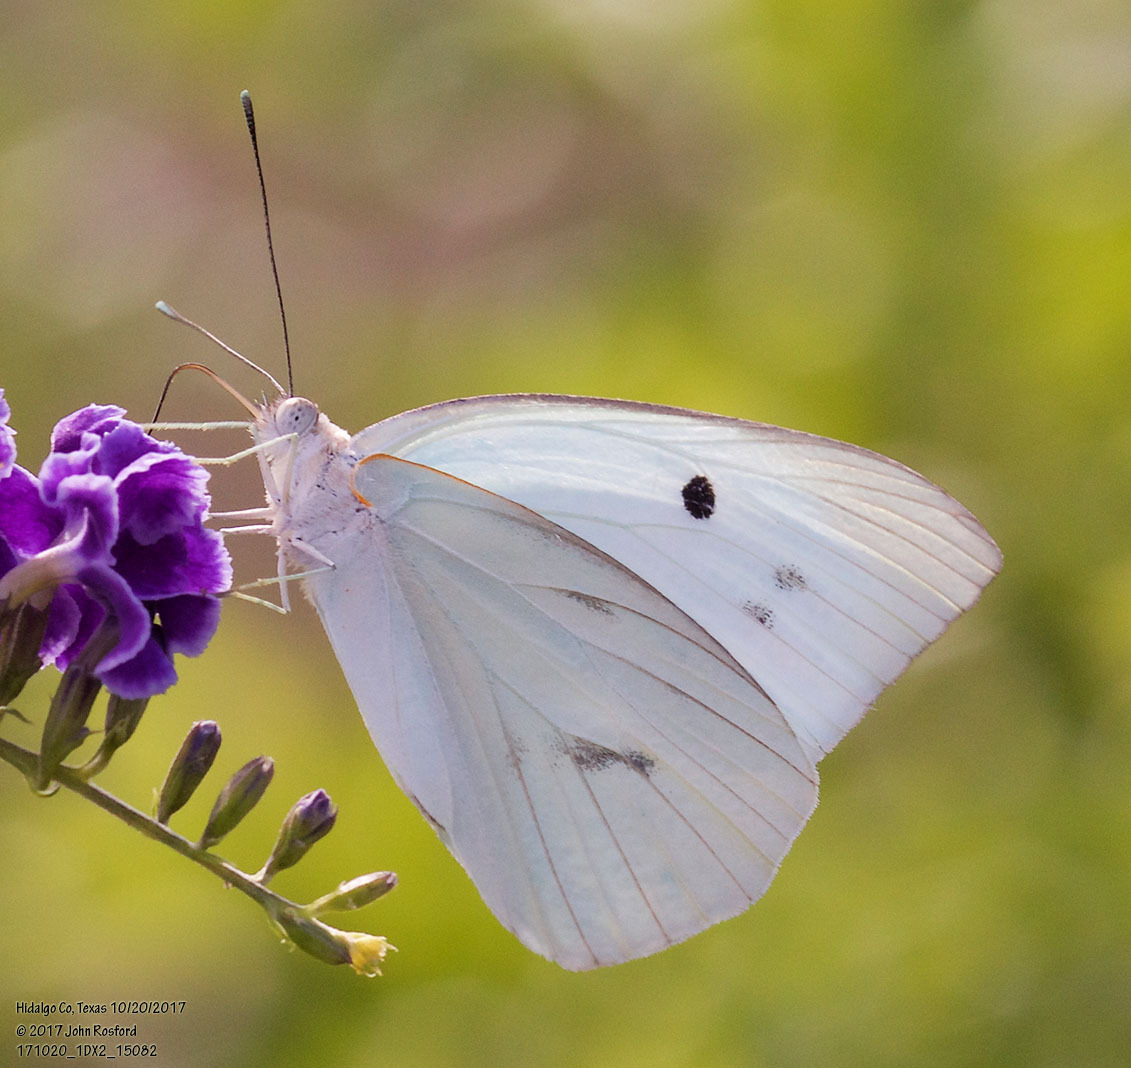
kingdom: Animalia
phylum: Arthropoda
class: Insecta
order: Lepidoptera
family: Pieridae
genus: Ganyra
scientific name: Ganyra josephina
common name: Giant white
